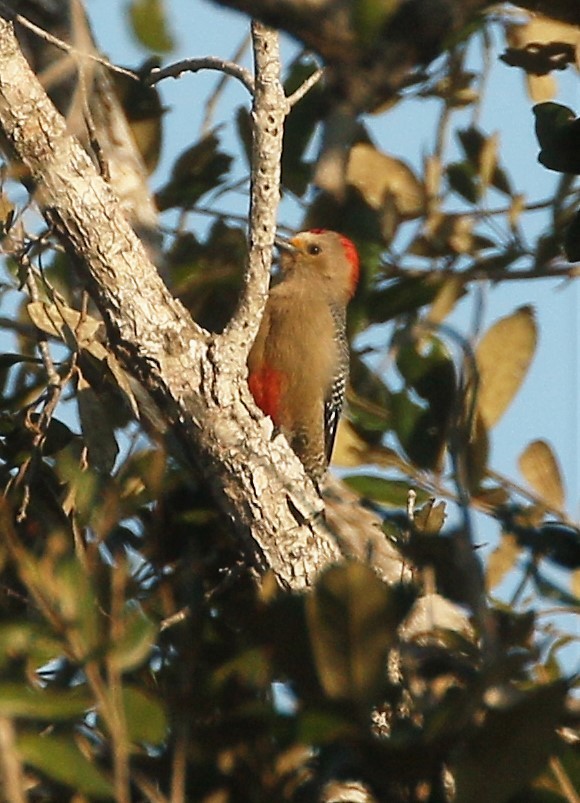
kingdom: Animalia
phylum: Chordata
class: Aves
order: Piciformes
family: Picidae
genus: Melanerpes
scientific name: Melanerpes pygmaeus
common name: Yucatan woodpecker
